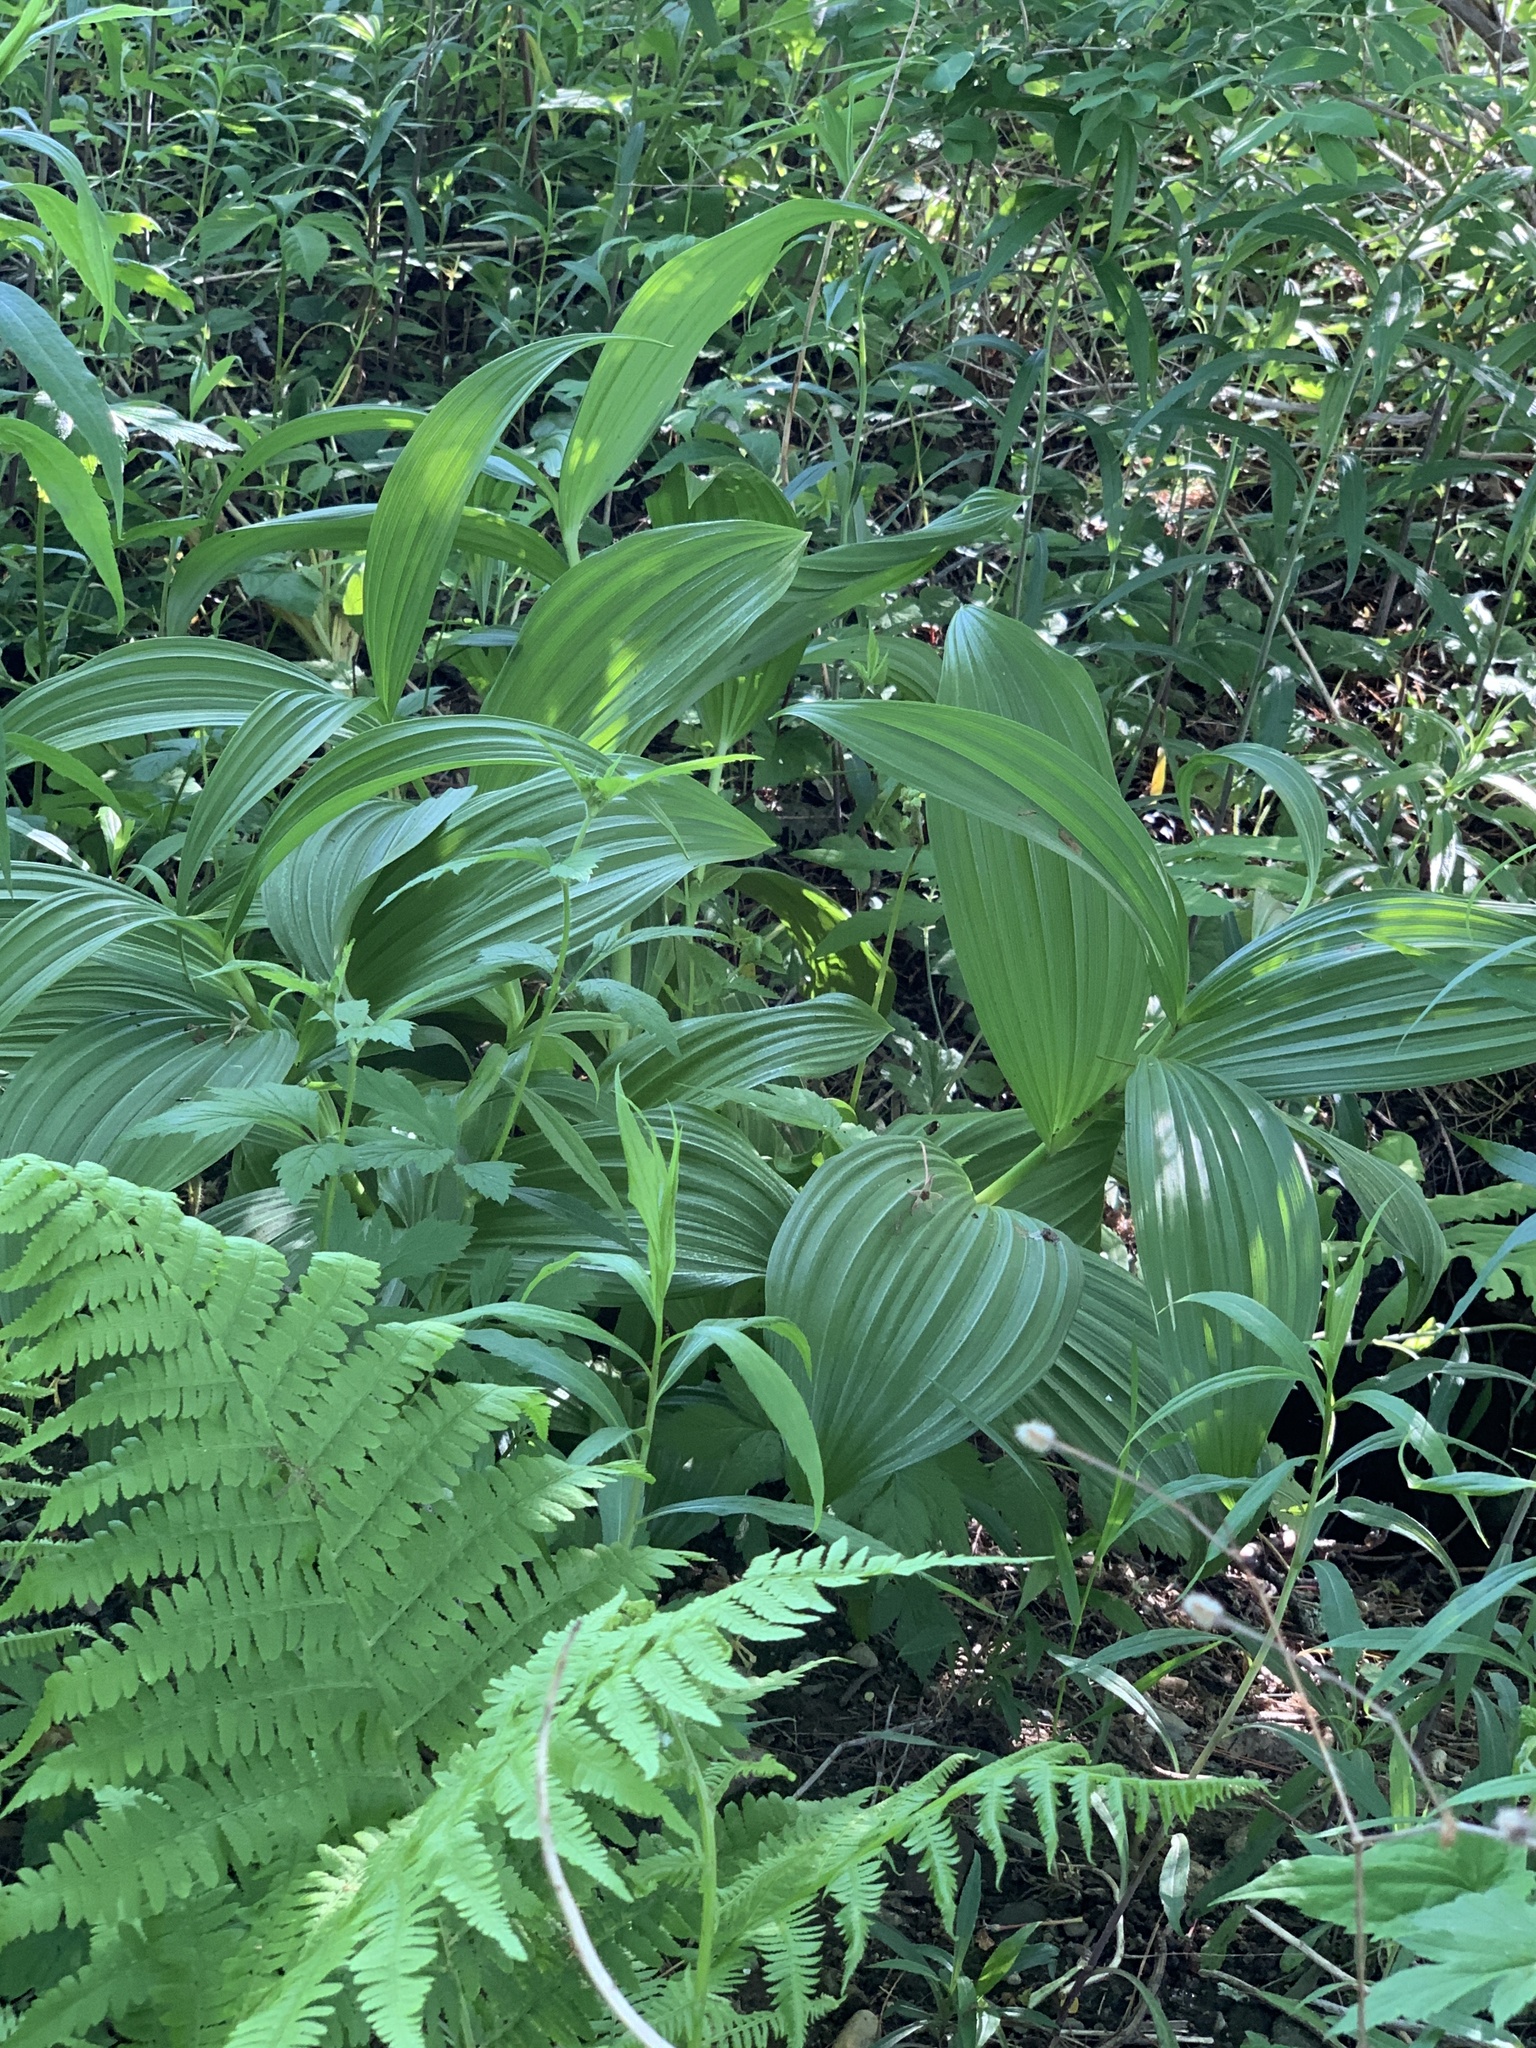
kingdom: Plantae
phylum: Tracheophyta
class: Liliopsida
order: Liliales
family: Melanthiaceae
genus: Veratrum
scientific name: Veratrum viride
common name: American false hellebore
